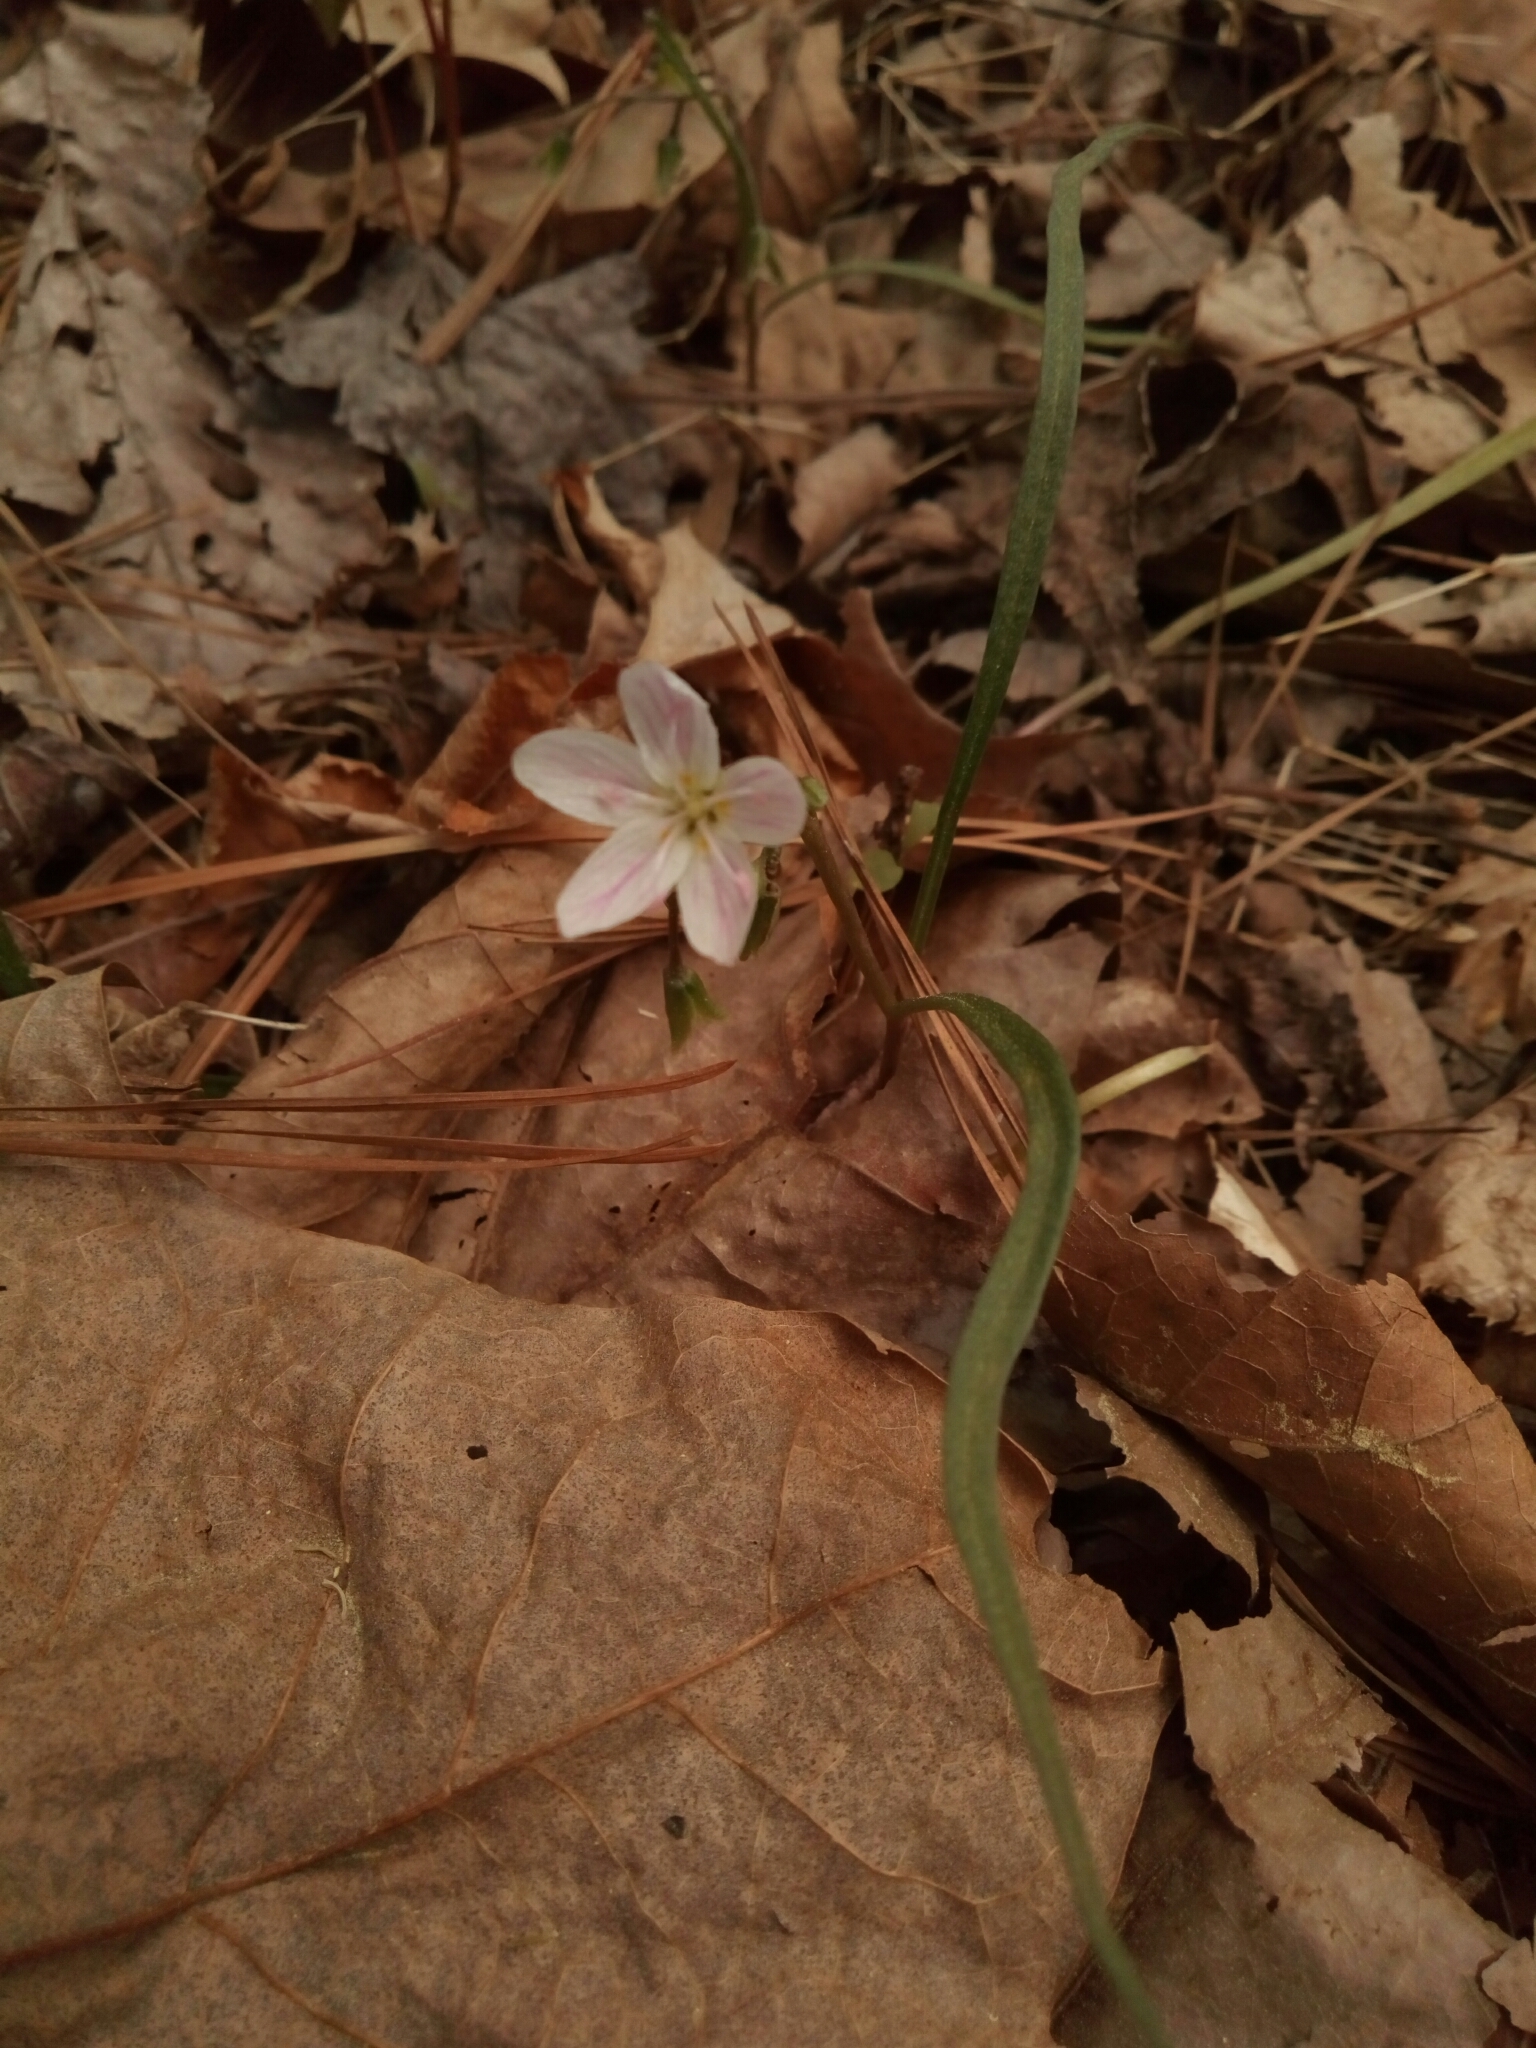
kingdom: Plantae
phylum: Tracheophyta
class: Magnoliopsida
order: Caryophyllales
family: Montiaceae
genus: Claytonia
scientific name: Claytonia virginica
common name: Virginia springbeauty
